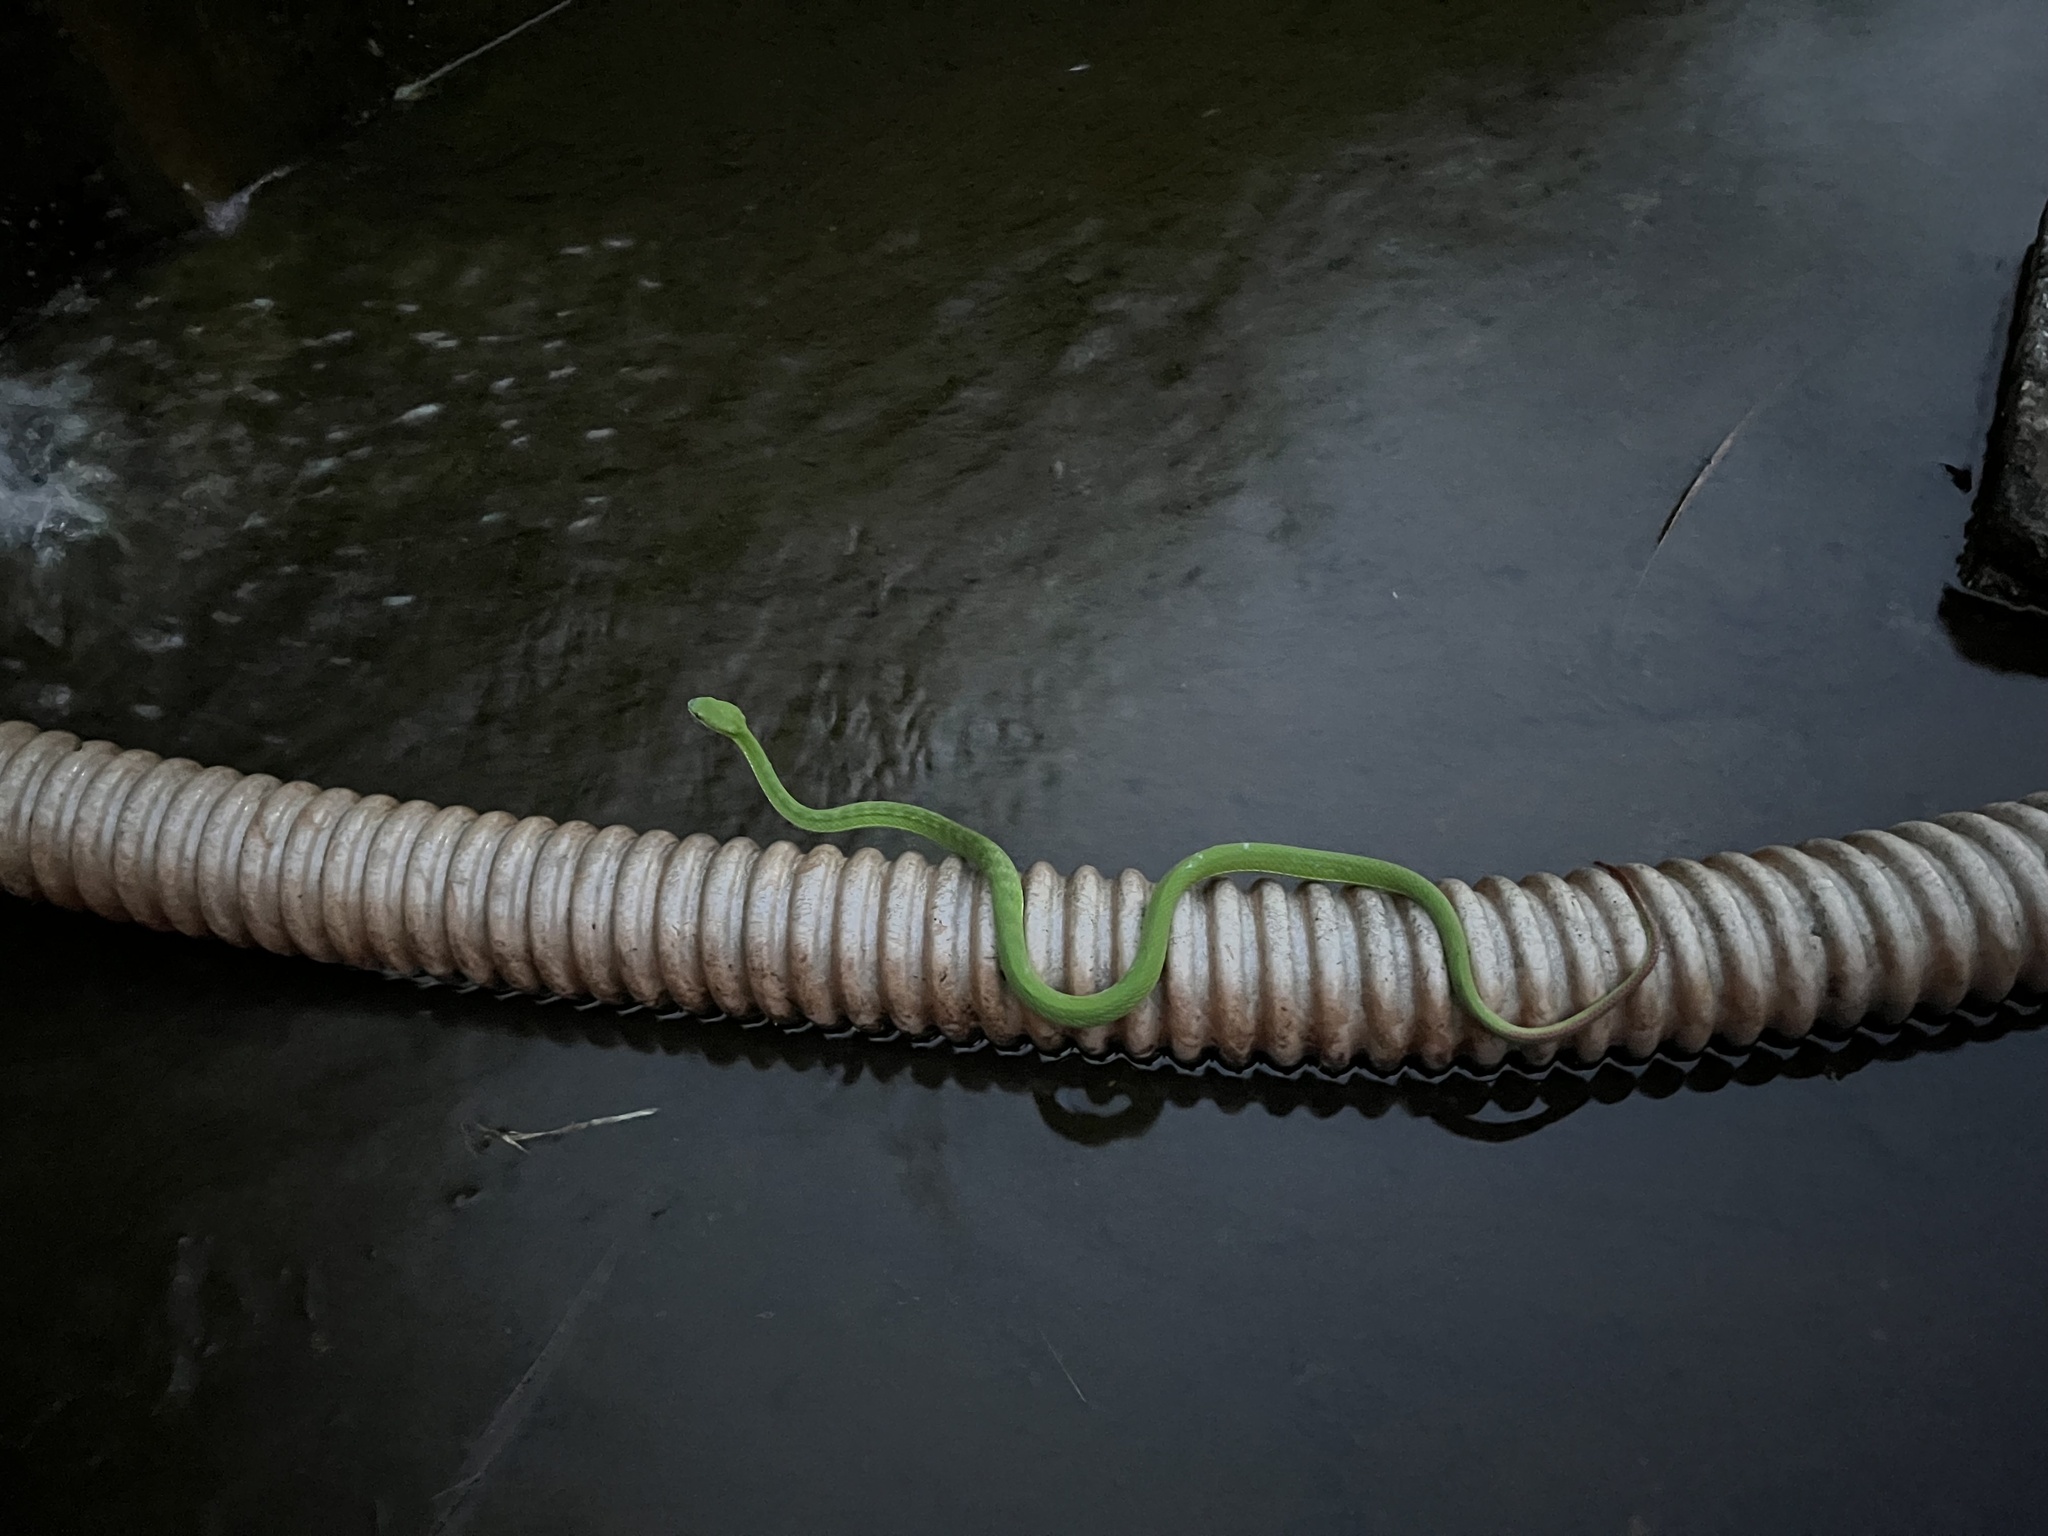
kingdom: Animalia
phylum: Chordata
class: Squamata
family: Viperidae
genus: Trimeresurus
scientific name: Trimeresurus guoi
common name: Guo’s green pit viper
